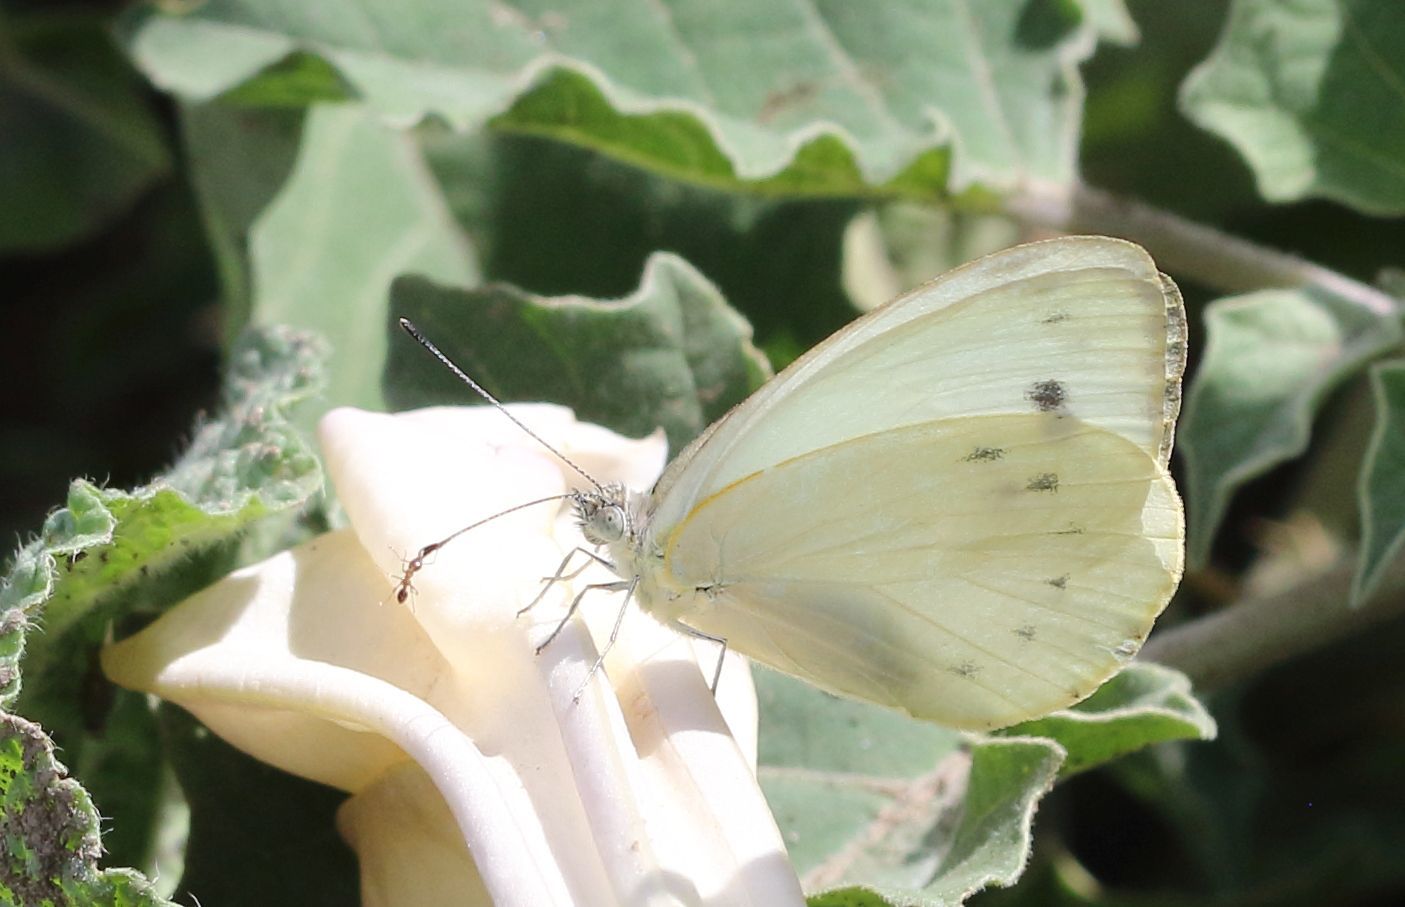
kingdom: Animalia
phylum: Arthropoda
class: Insecta
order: Lepidoptera
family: Pieridae
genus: Dixeia
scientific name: Dixeia pigea
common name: Ant-heap small white
